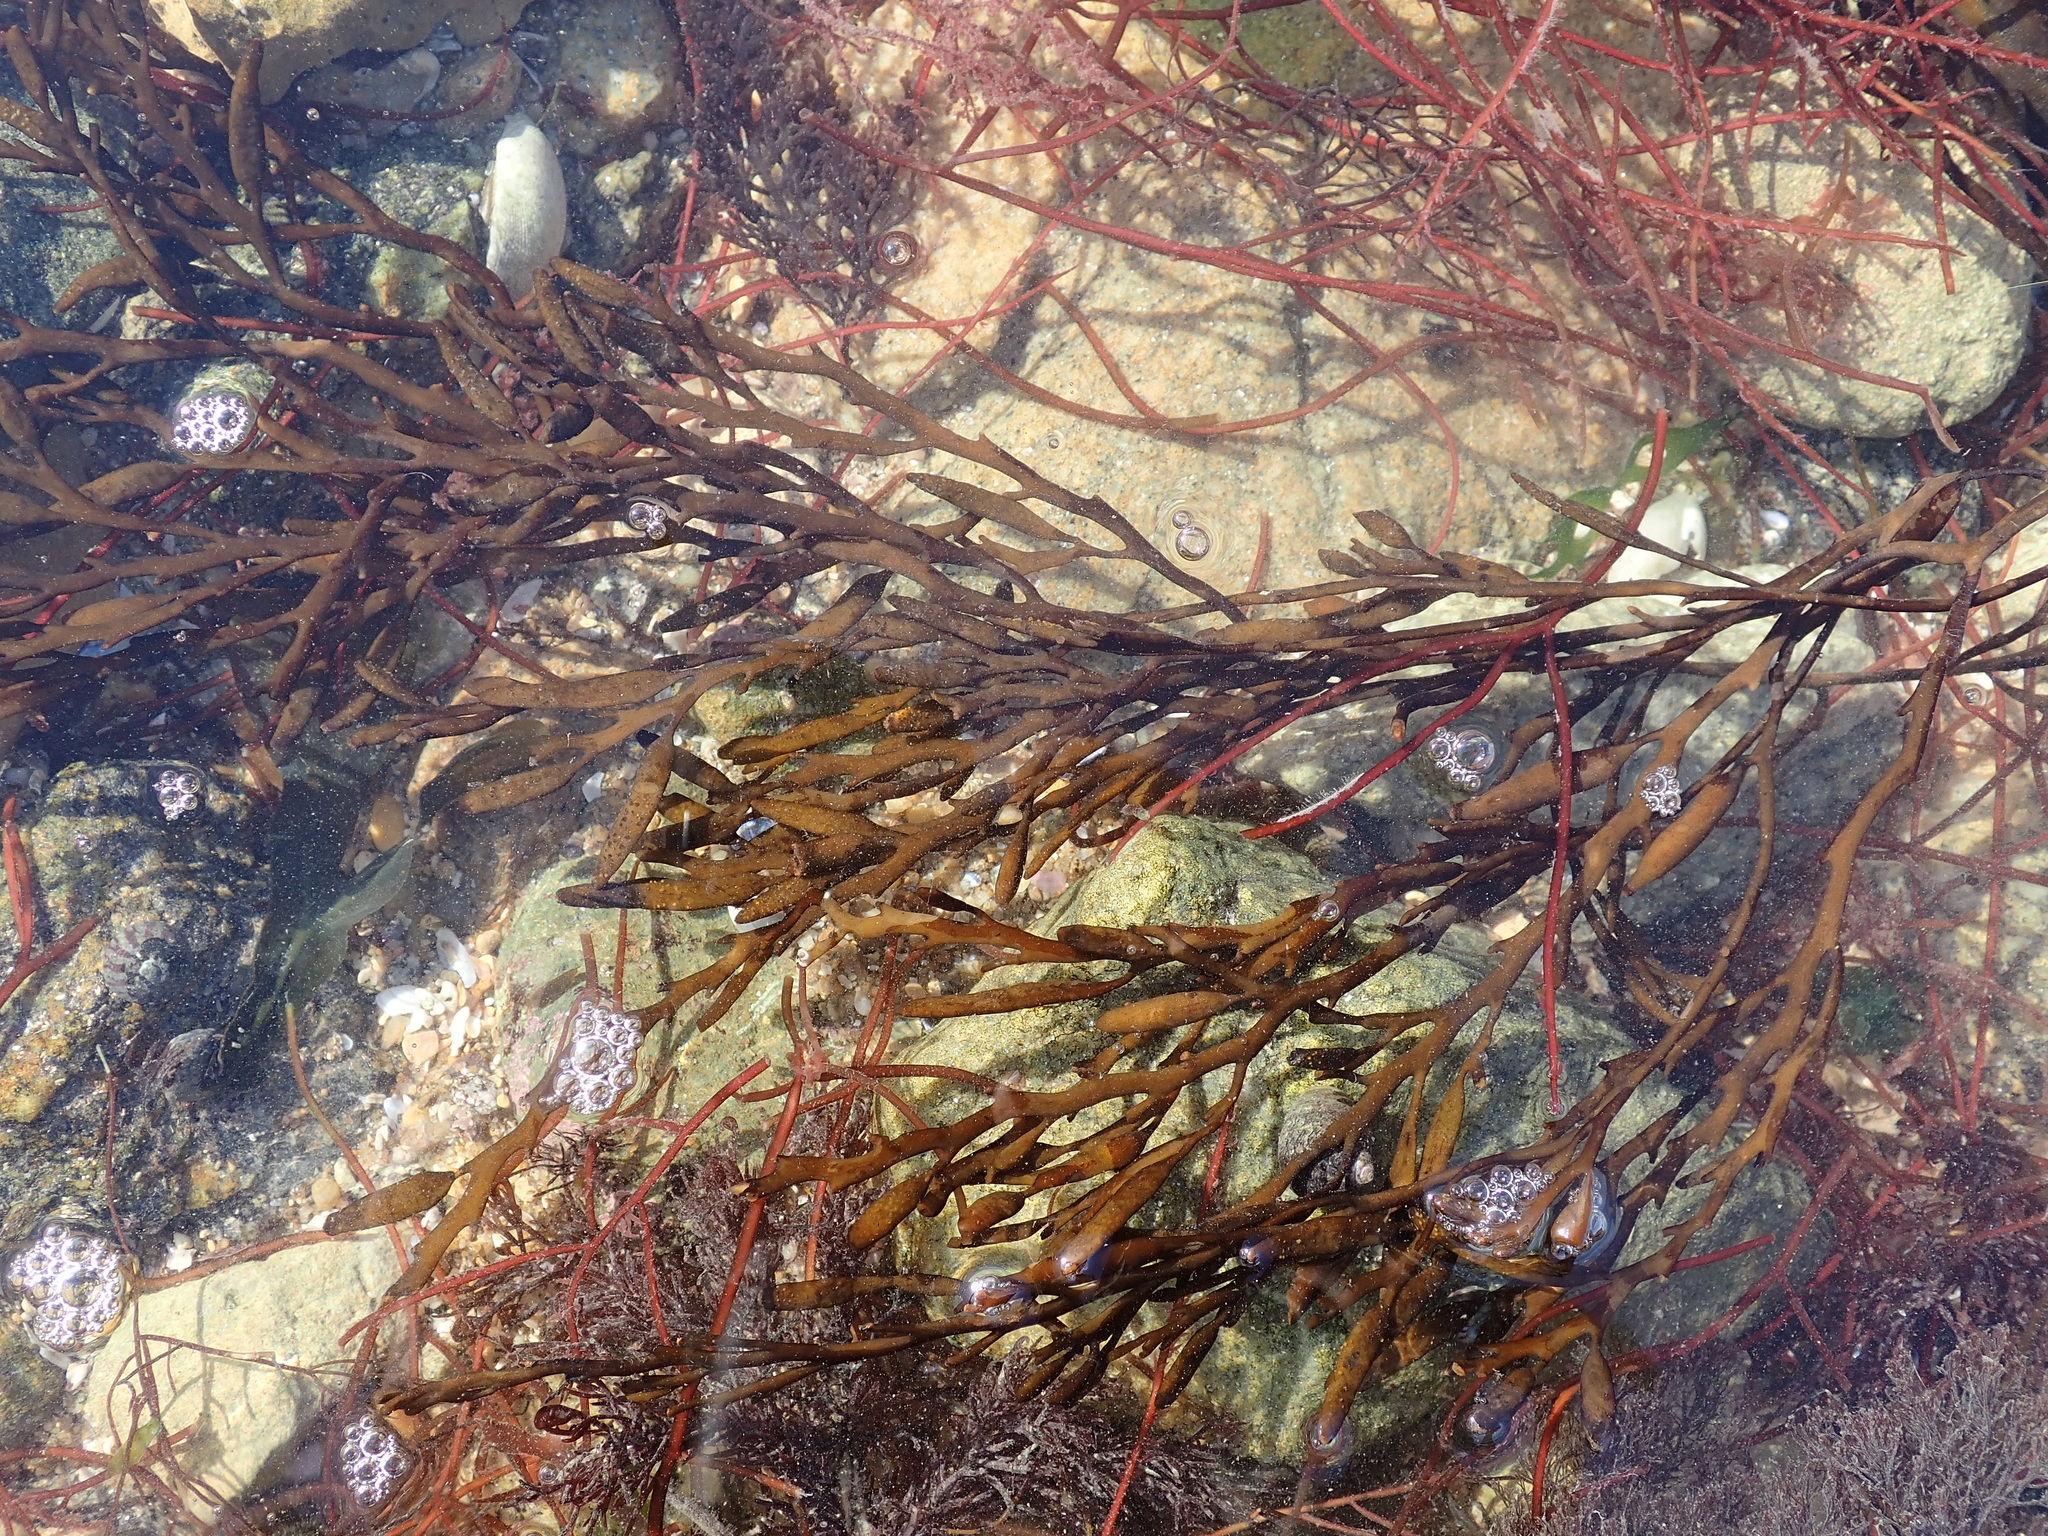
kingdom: Chromista
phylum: Ochrophyta
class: Phaeophyceae
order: Fucales
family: Sargassaceae
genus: Halidrys
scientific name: Halidrys siliquosa
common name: Sea oak
